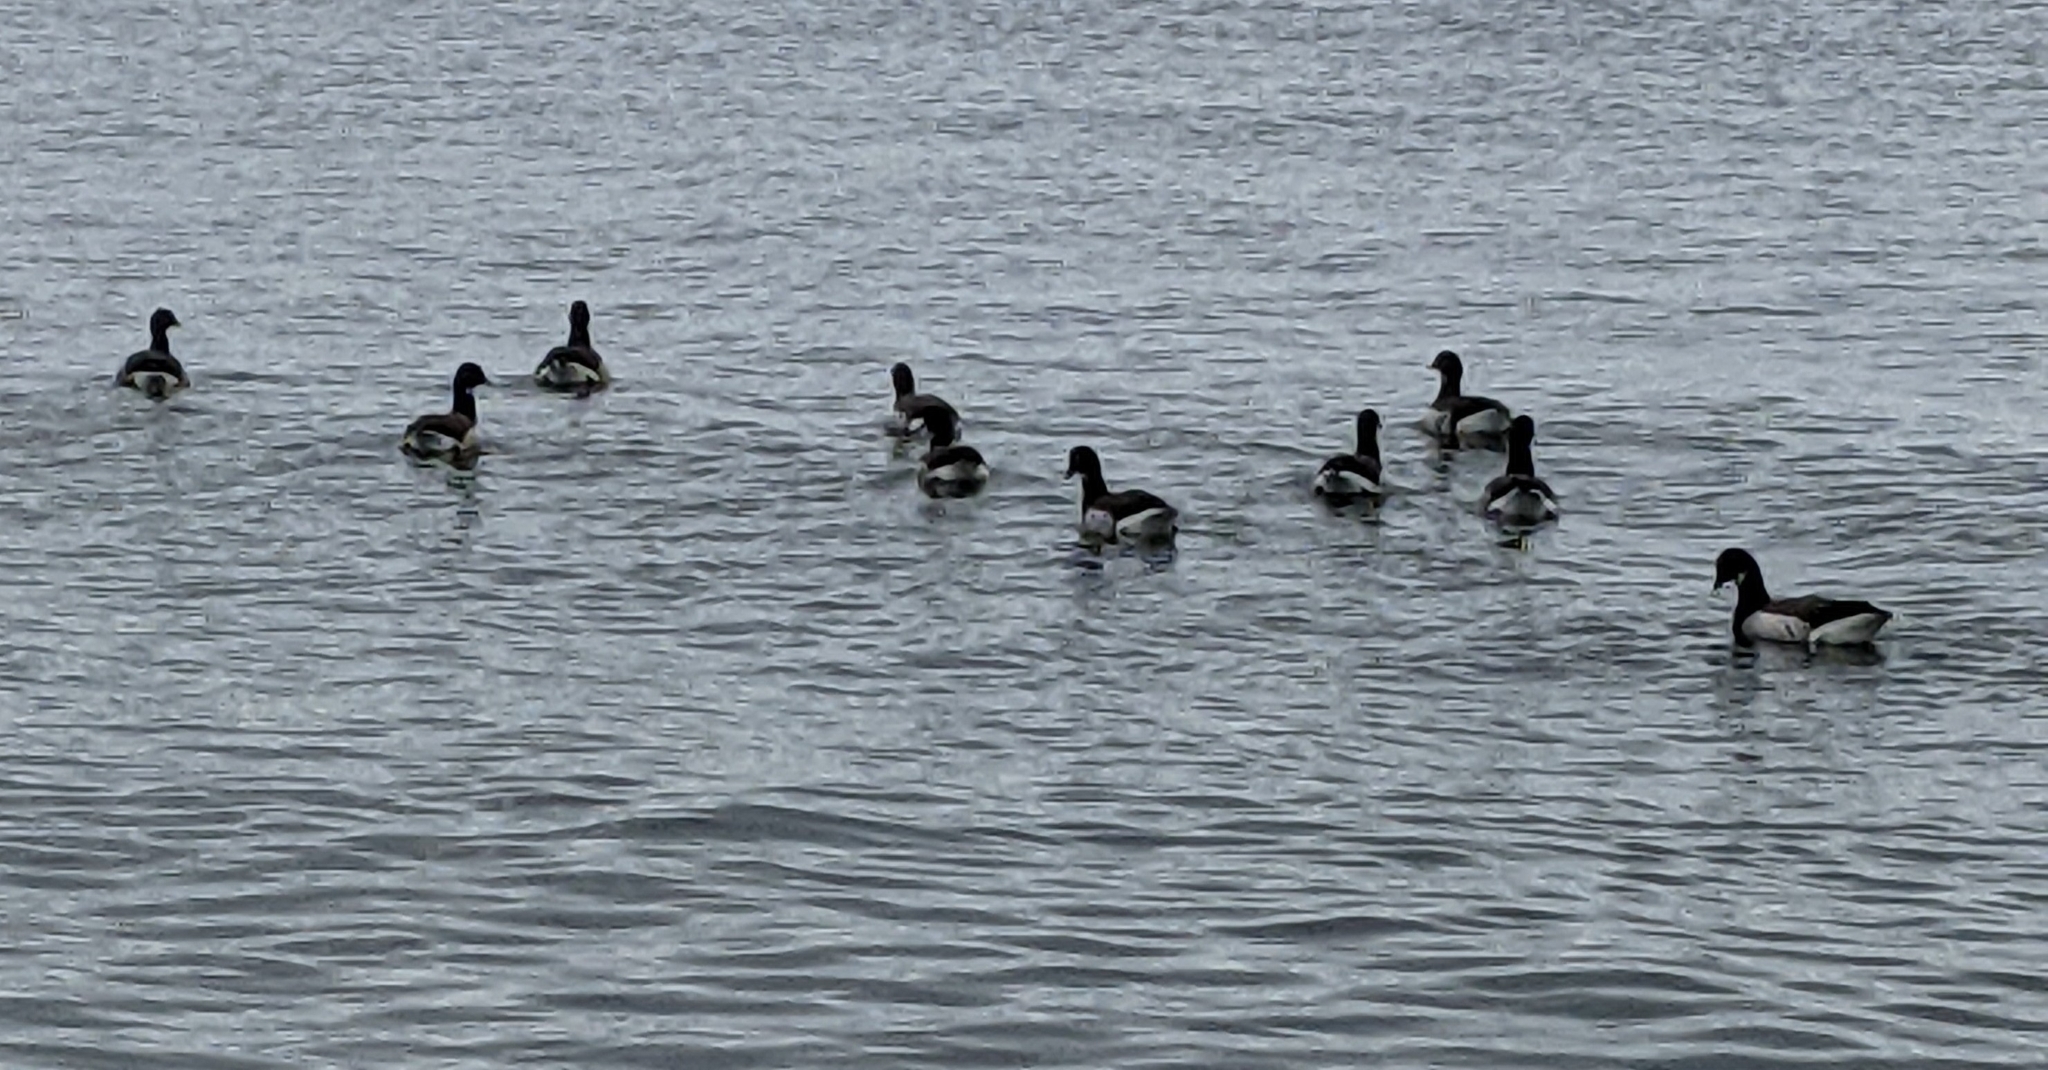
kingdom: Animalia
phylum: Chordata
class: Aves
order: Anseriformes
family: Anatidae
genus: Branta
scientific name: Branta bernicla
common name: Brant goose
